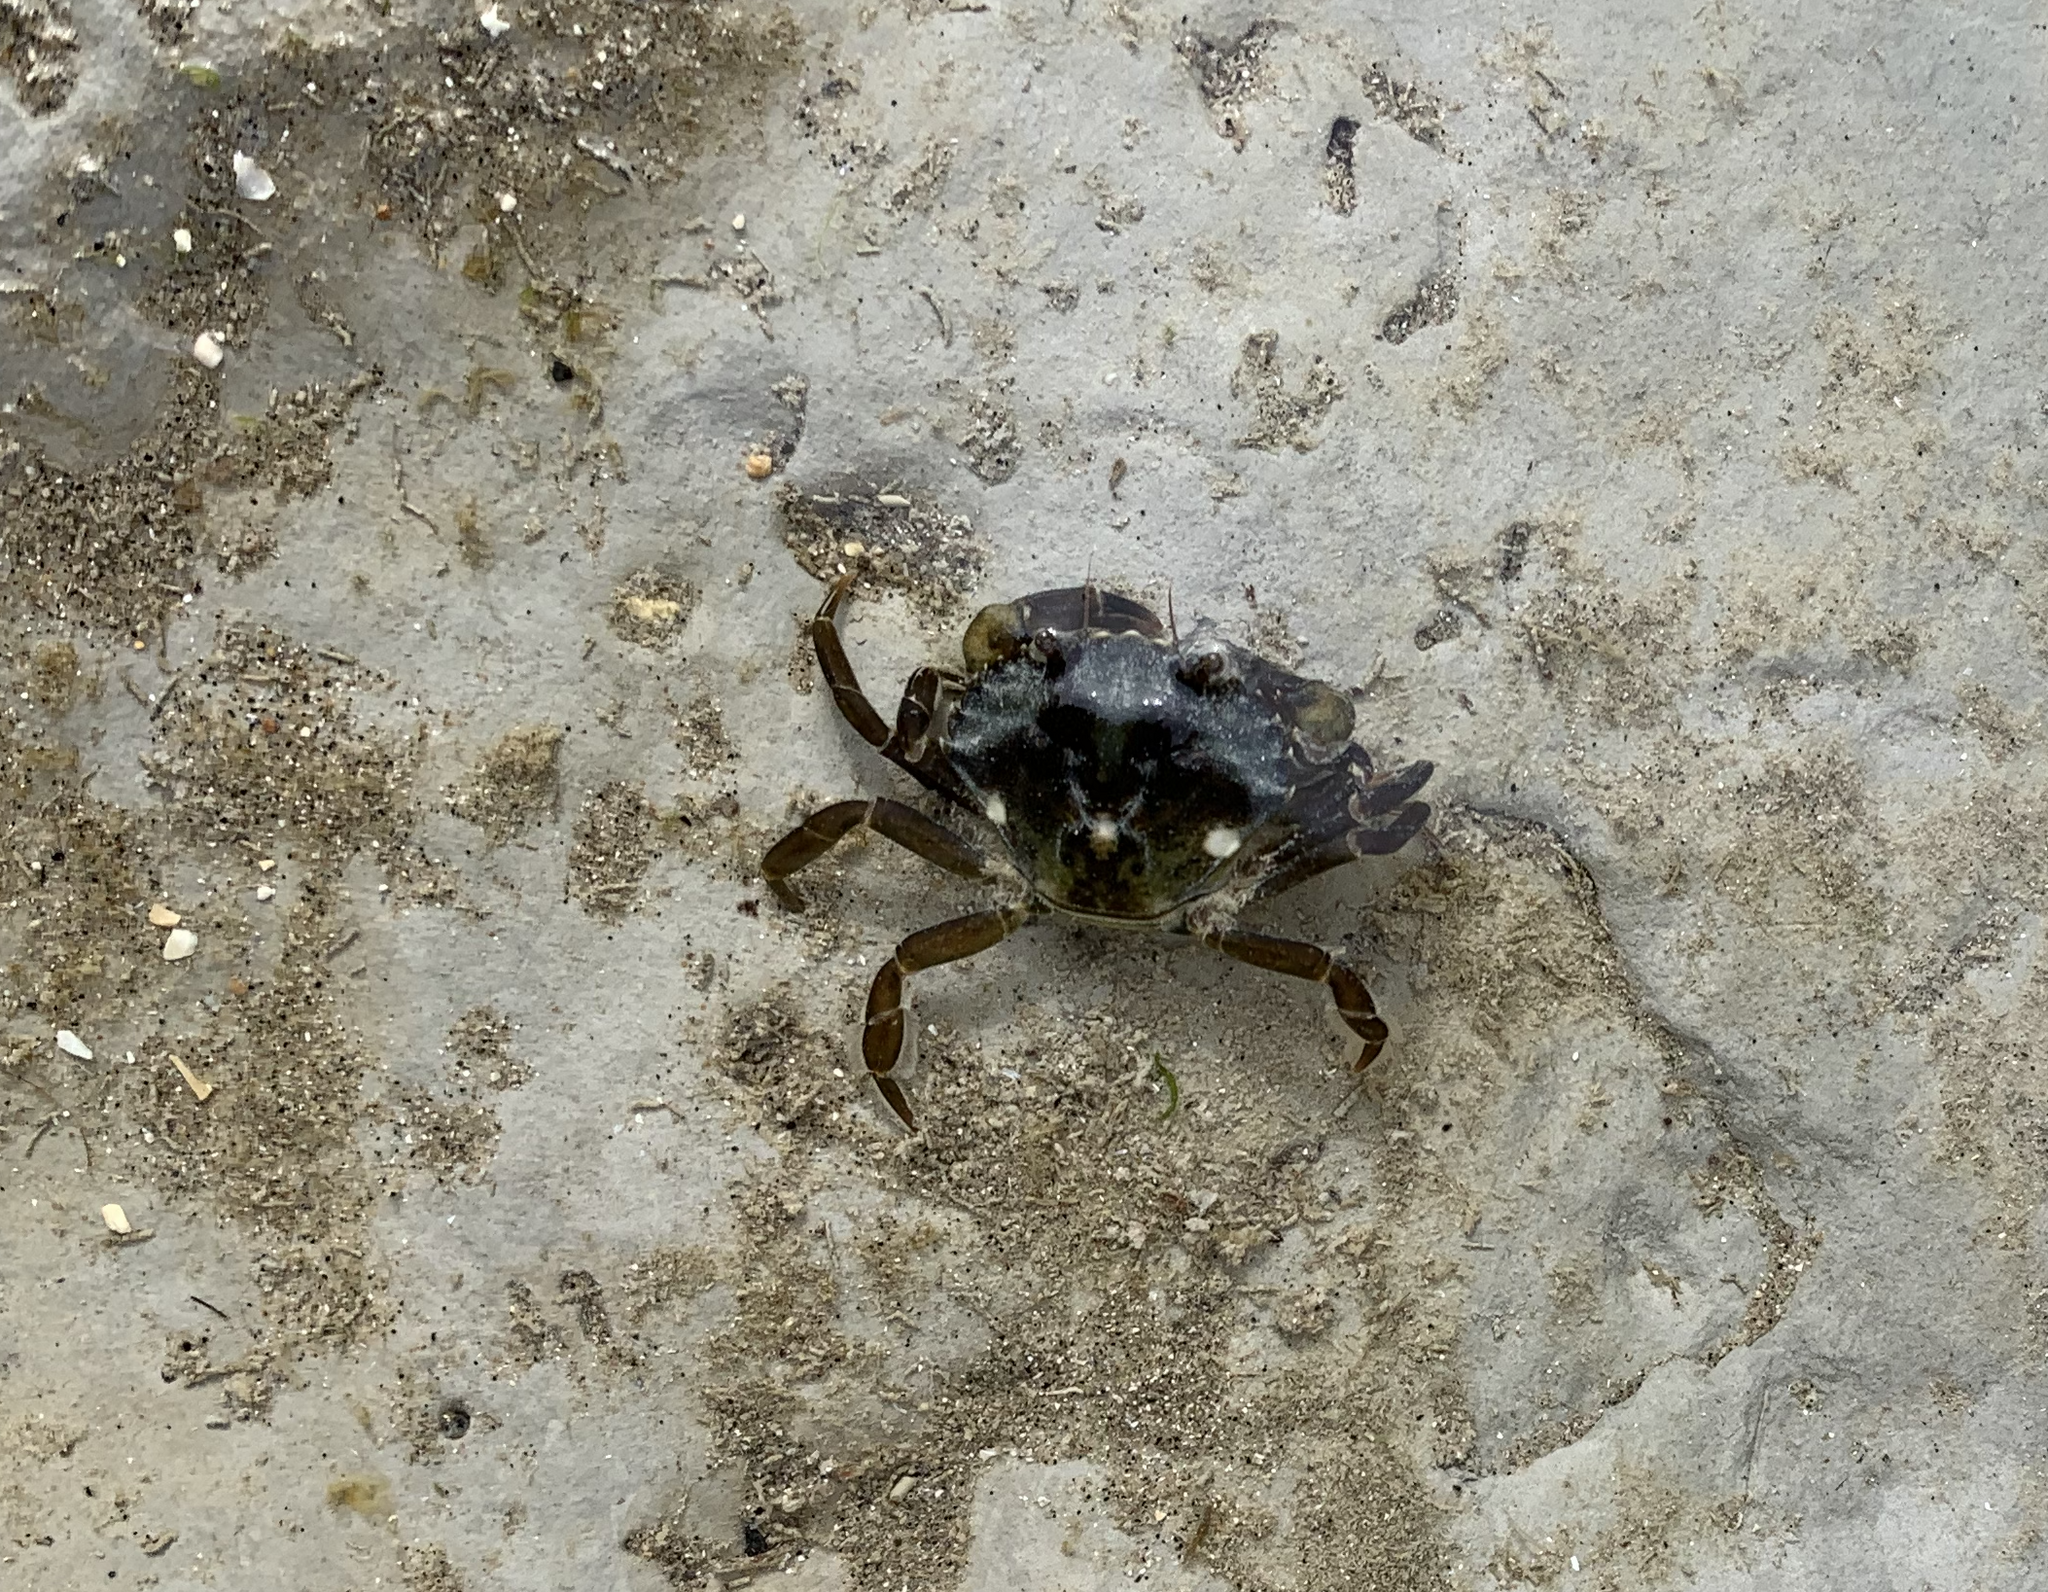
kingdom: Animalia
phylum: Arthropoda
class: Malacostraca
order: Decapoda
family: Carcinidae
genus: Carcinus
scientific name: Carcinus maenas
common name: European green crab
